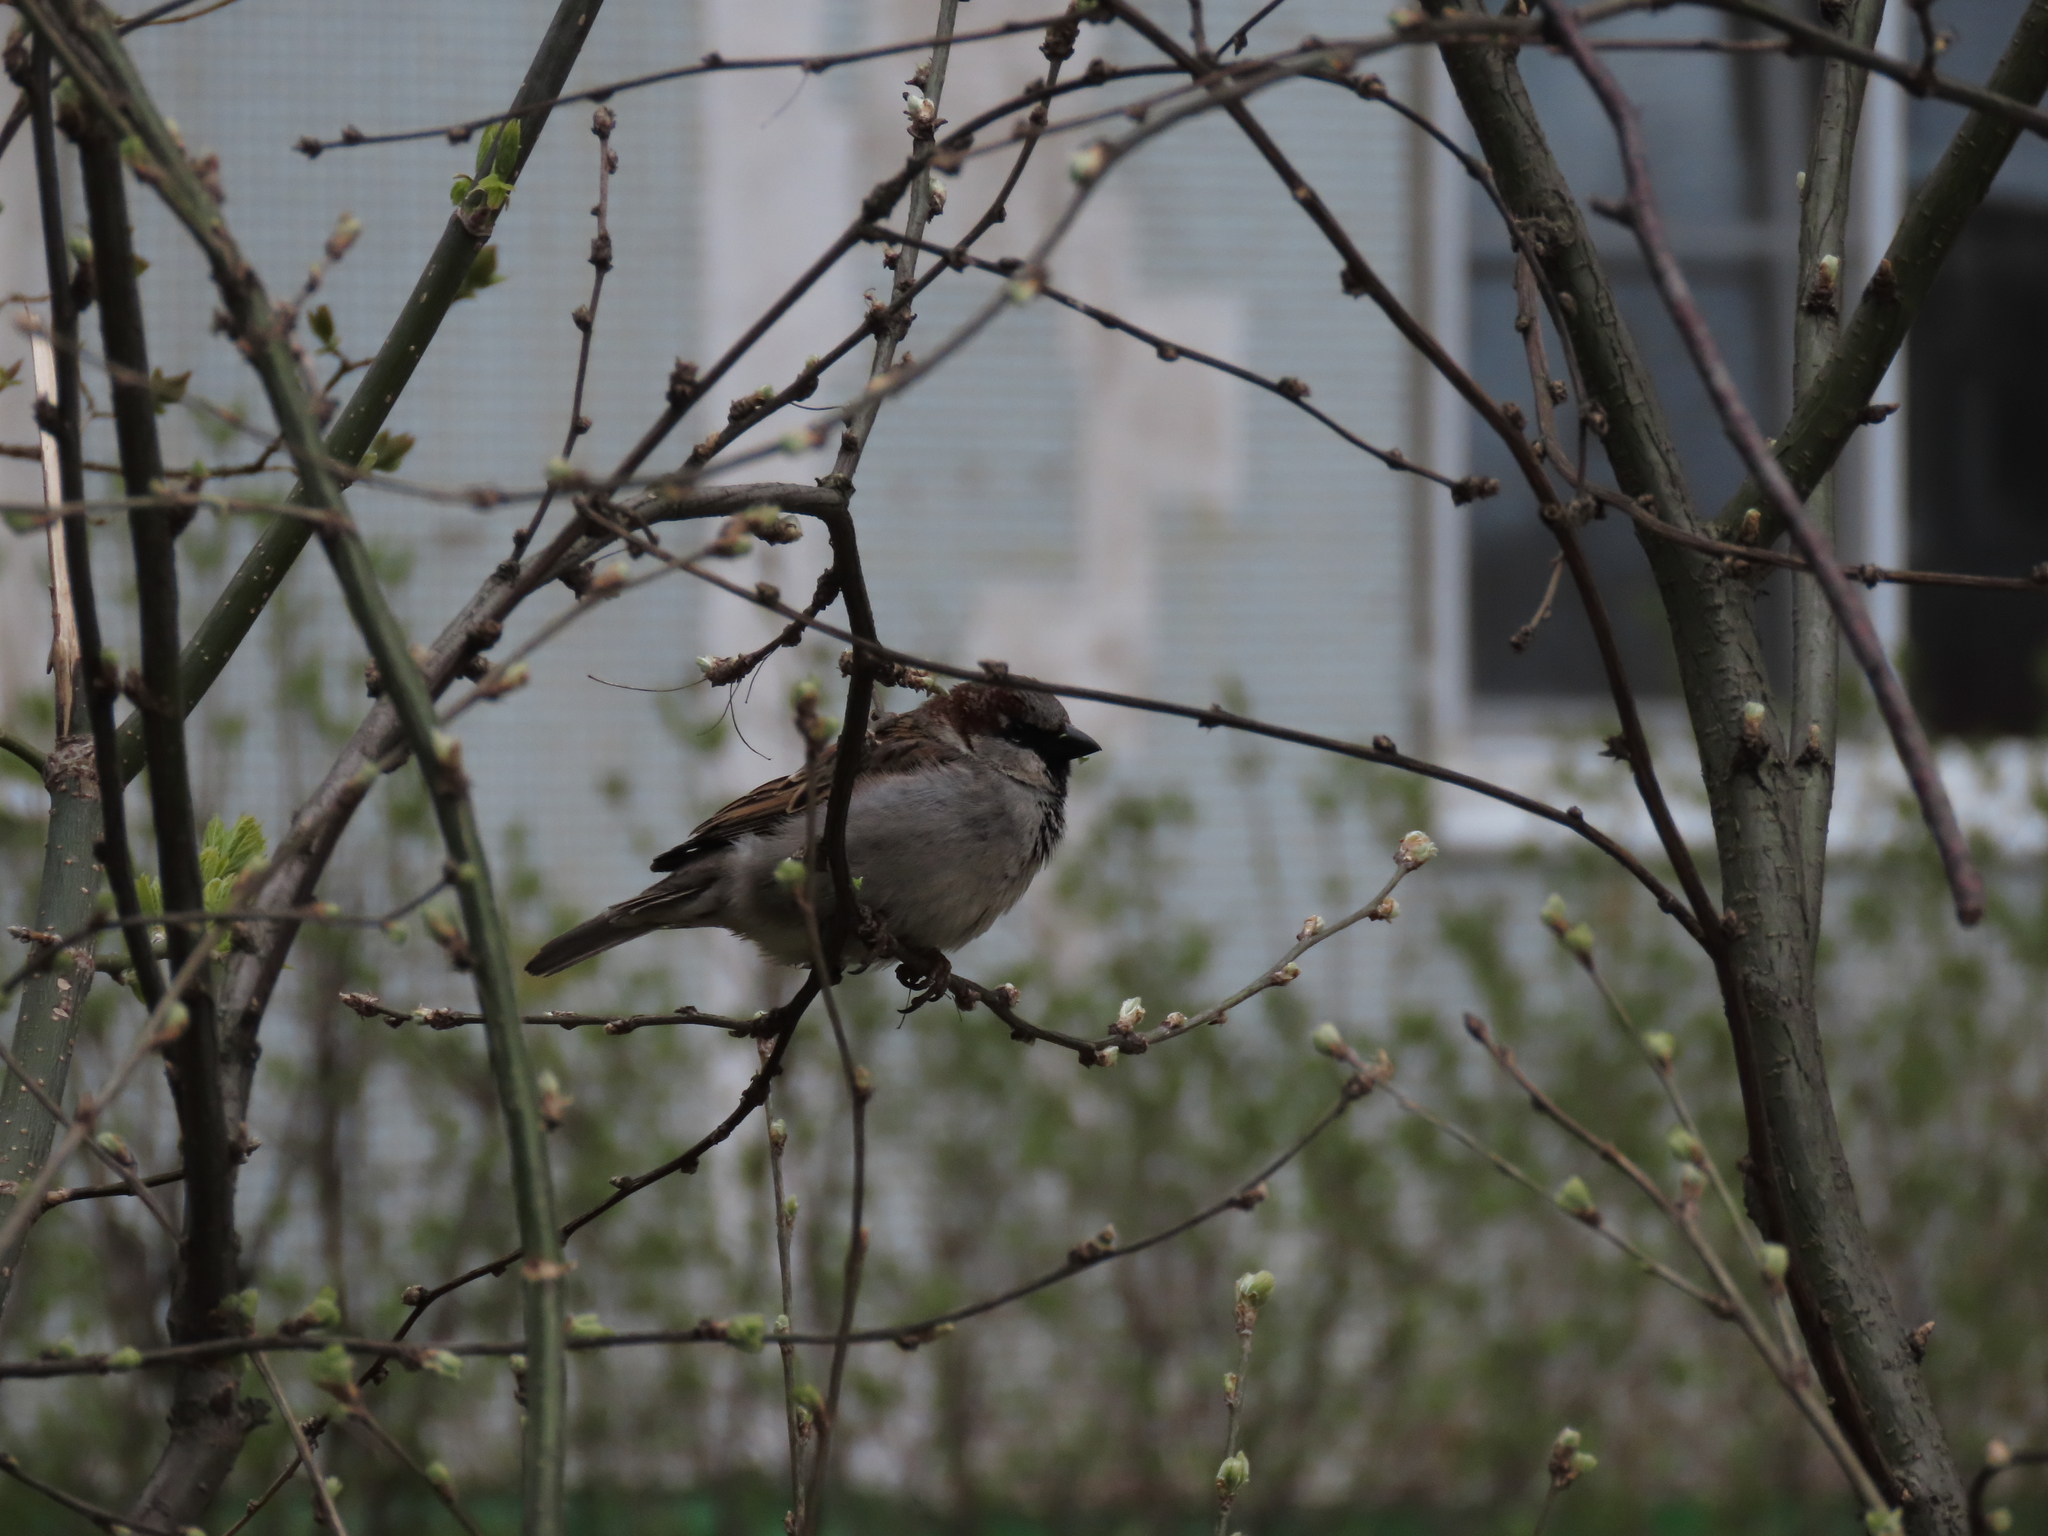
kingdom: Animalia
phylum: Chordata
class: Aves
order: Passeriformes
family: Passeridae
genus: Passer
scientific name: Passer domesticus
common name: House sparrow
